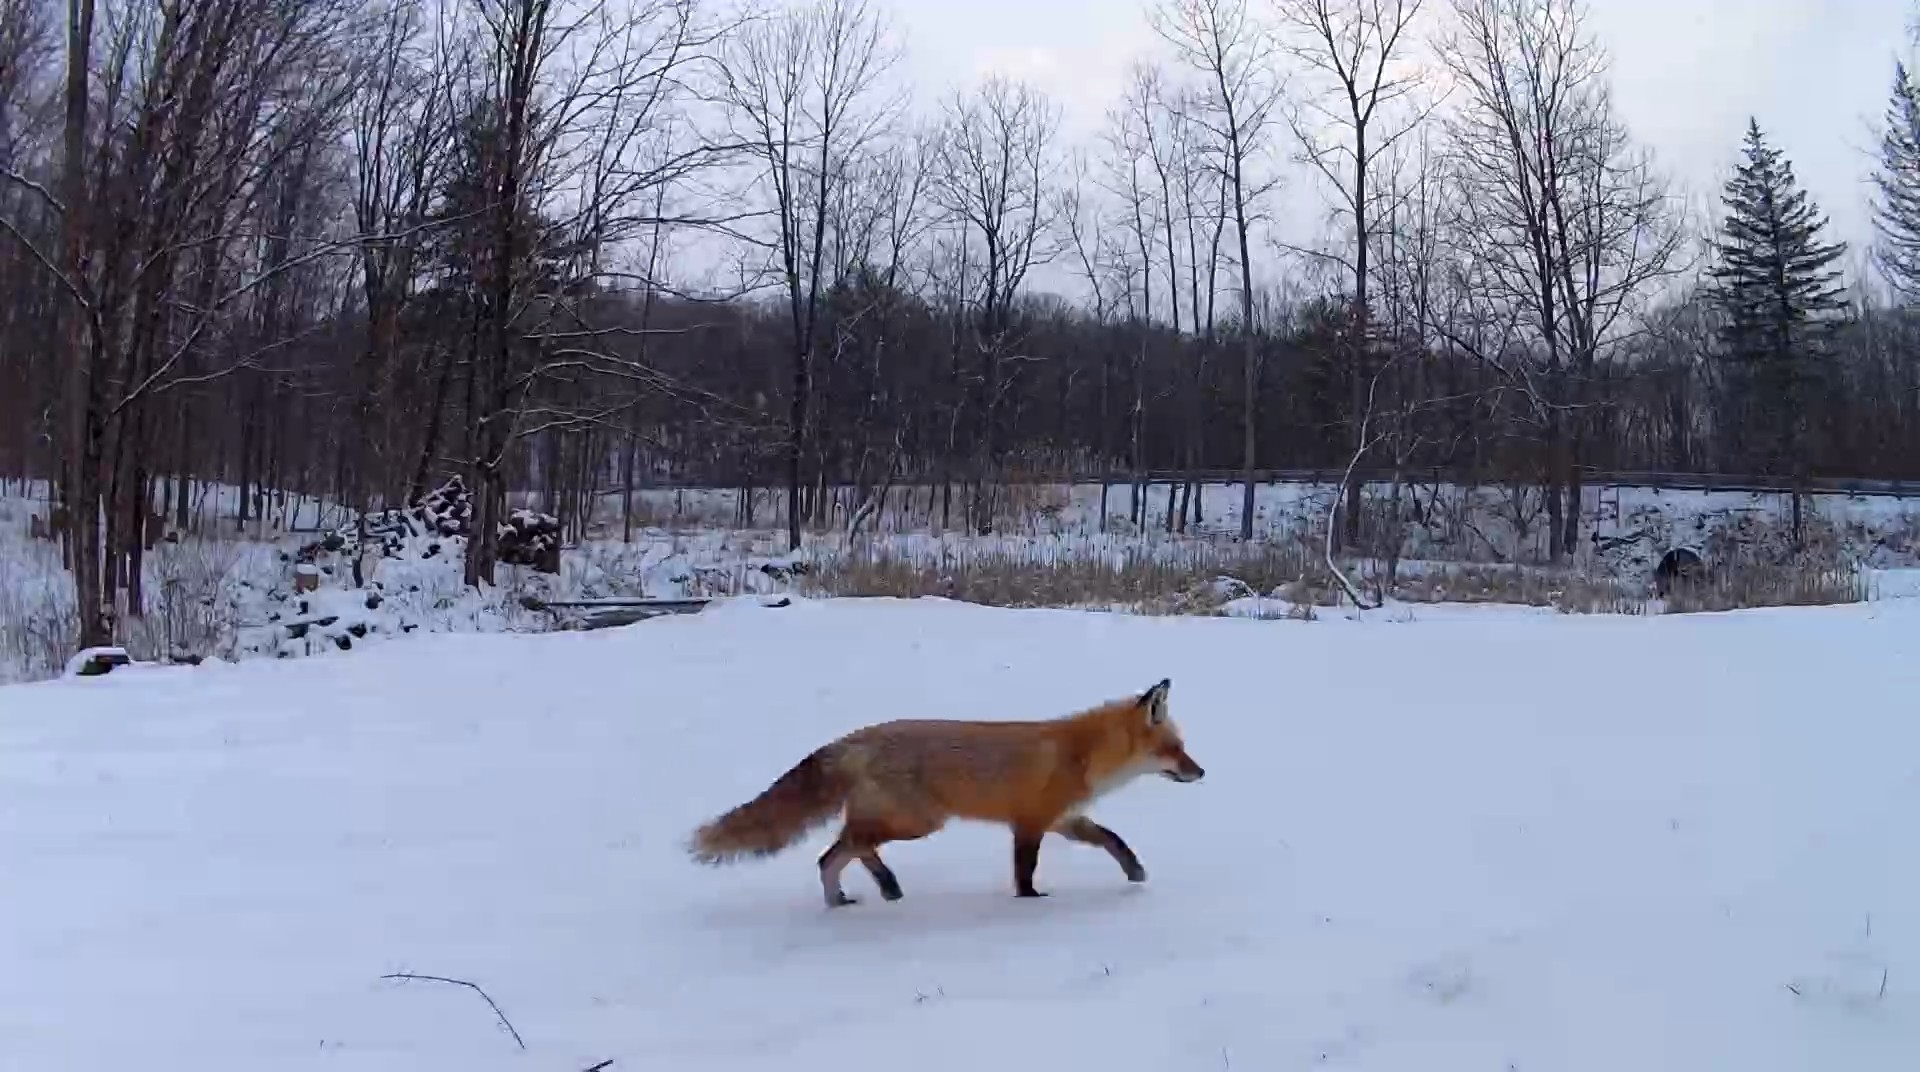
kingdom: Animalia
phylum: Chordata
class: Mammalia
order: Carnivora
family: Canidae
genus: Vulpes
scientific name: Vulpes vulpes
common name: Red fox
